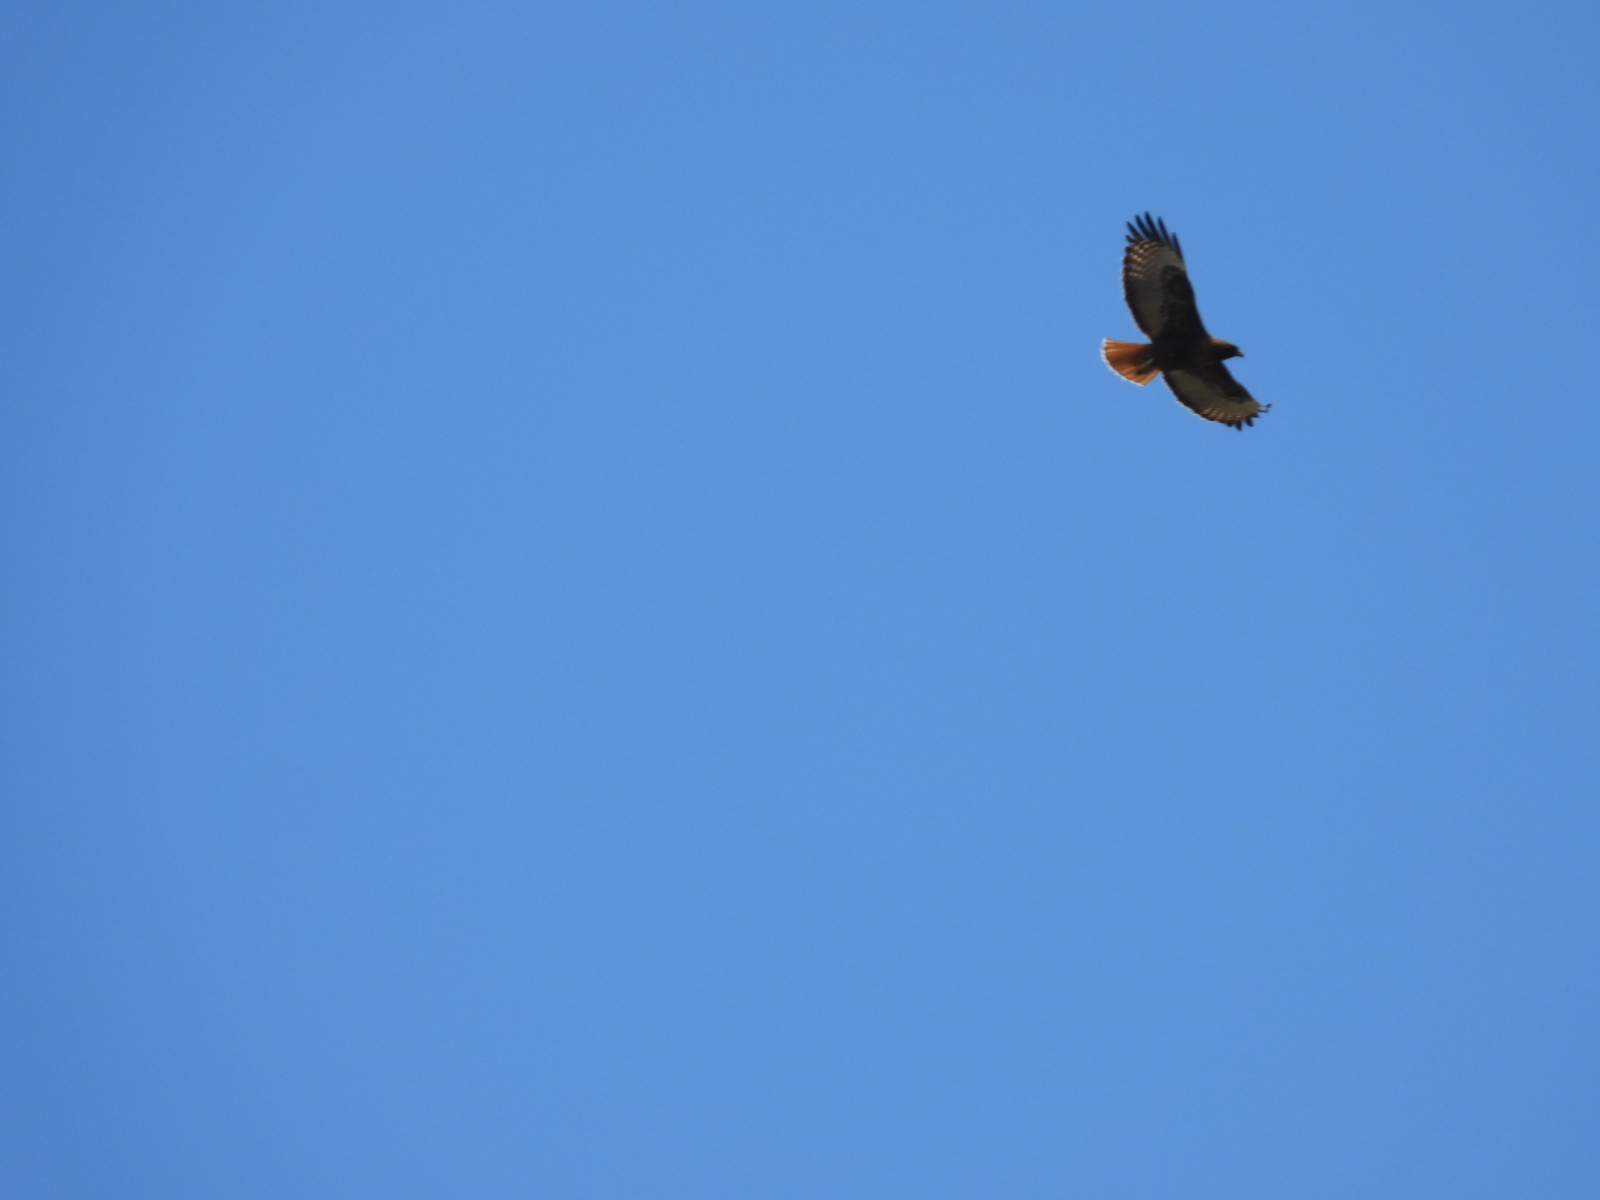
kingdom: Animalia
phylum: Chordata
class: Aves
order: Accipitriformes
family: Accipitridae
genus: Buteo
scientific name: Buteo jamaicensis
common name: Red-tailed hawk
